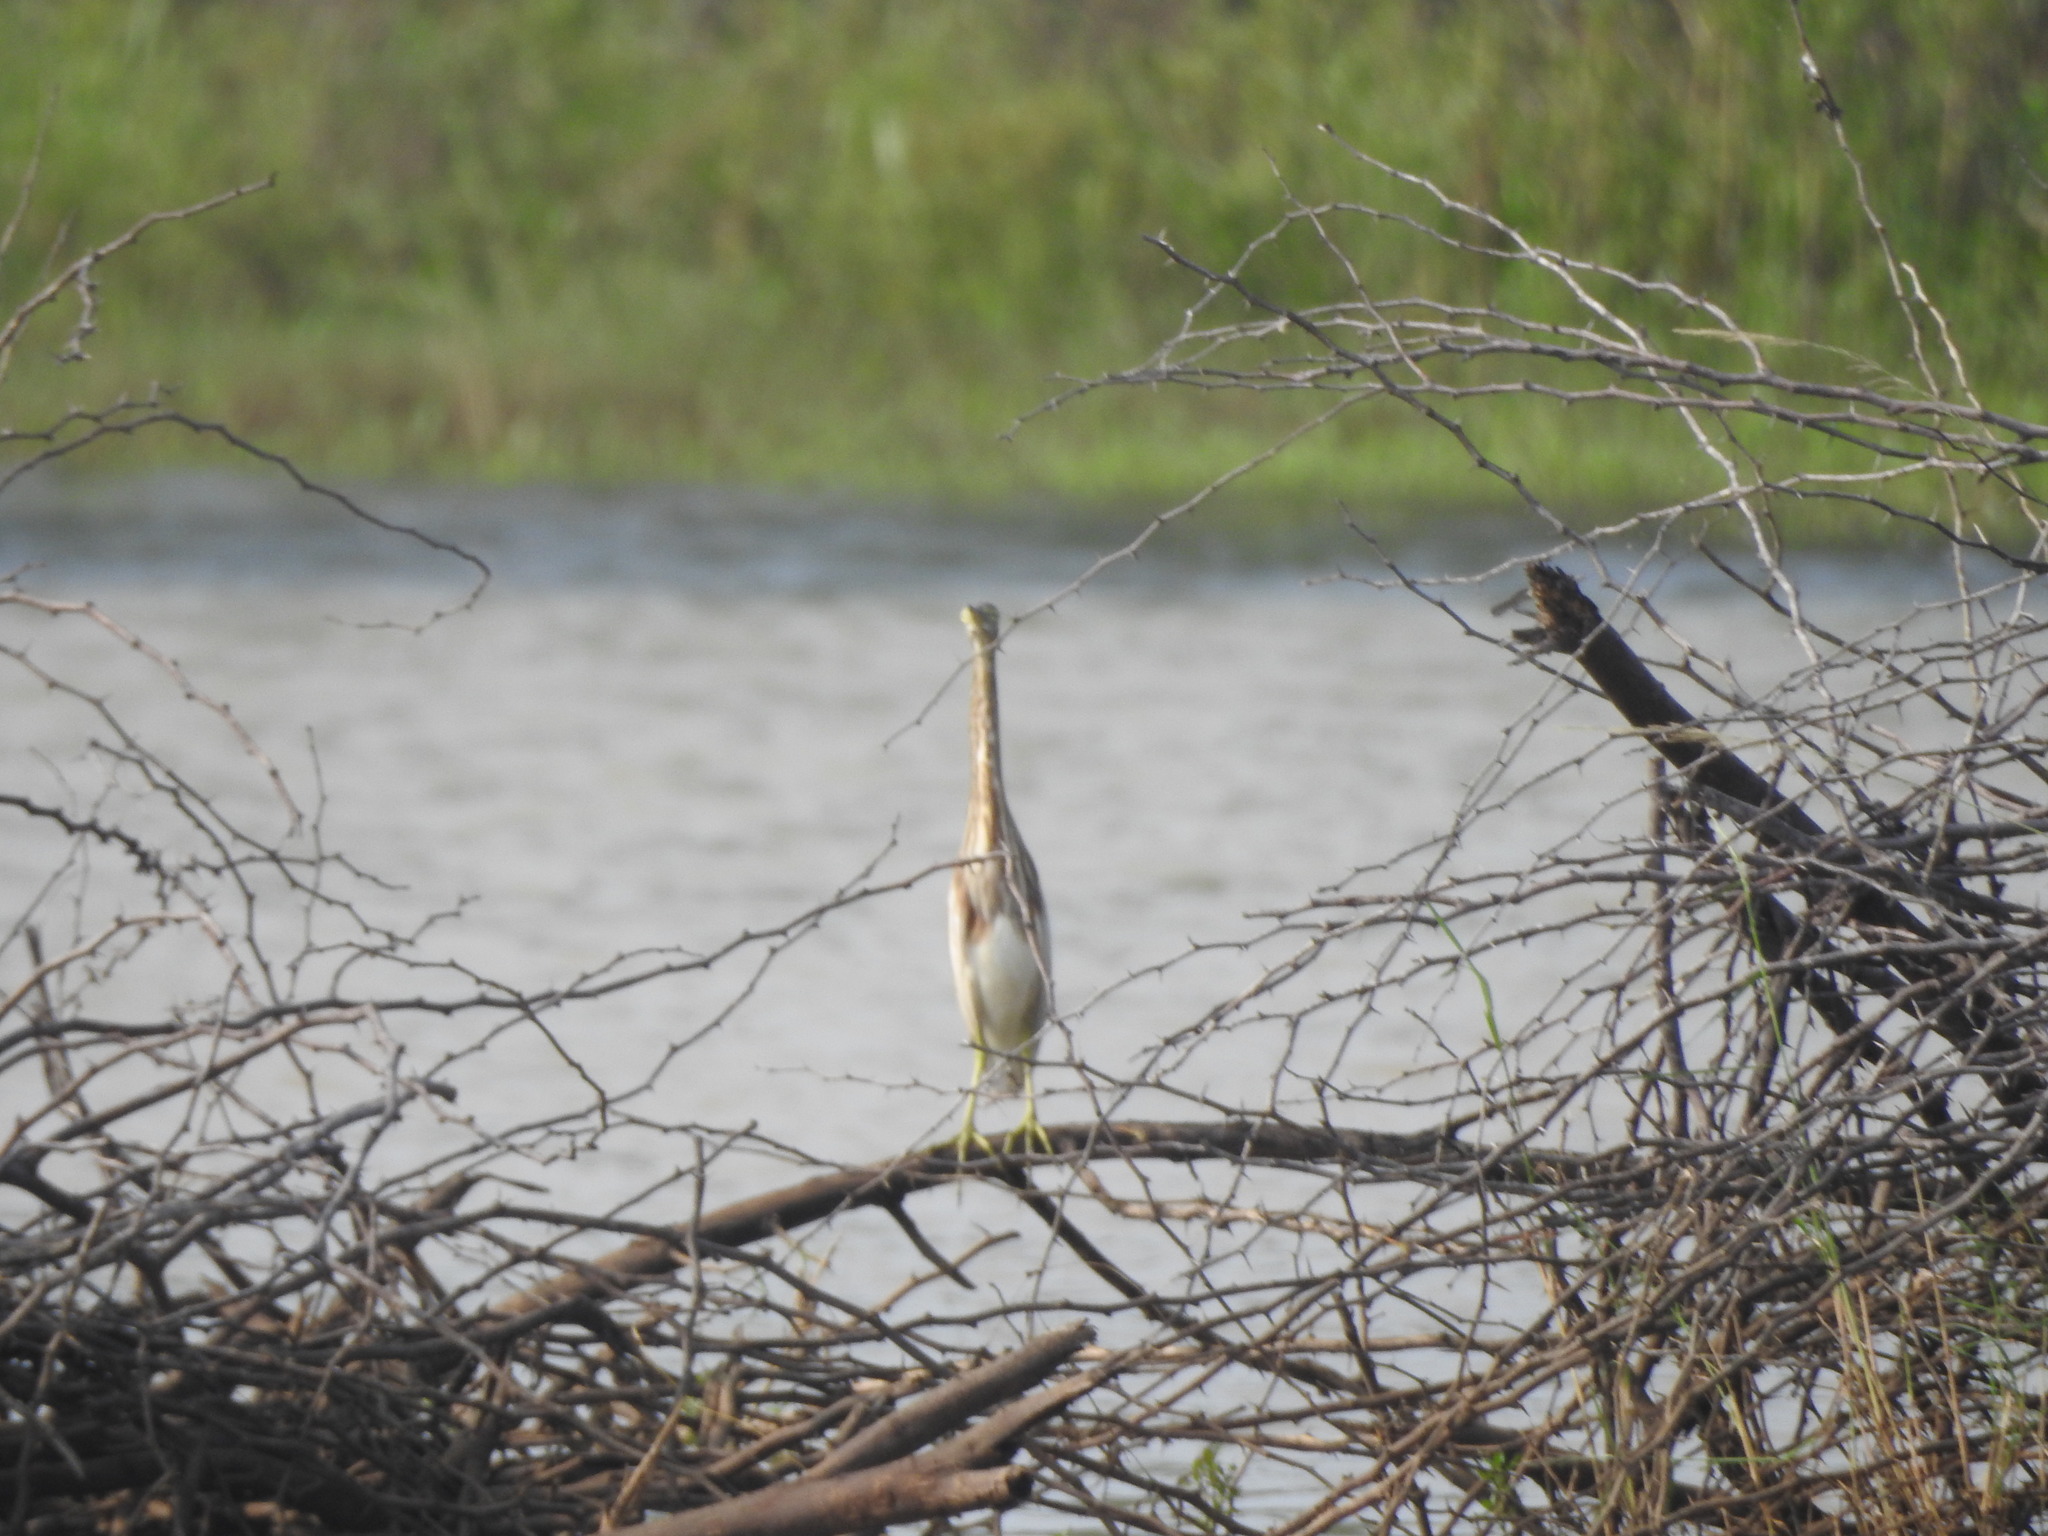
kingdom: Animalia
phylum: Chordata
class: Aves
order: Pelecaniformes
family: Ardeidae
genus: Ardeola
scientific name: Ardeola grayii
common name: Indian pond heron
